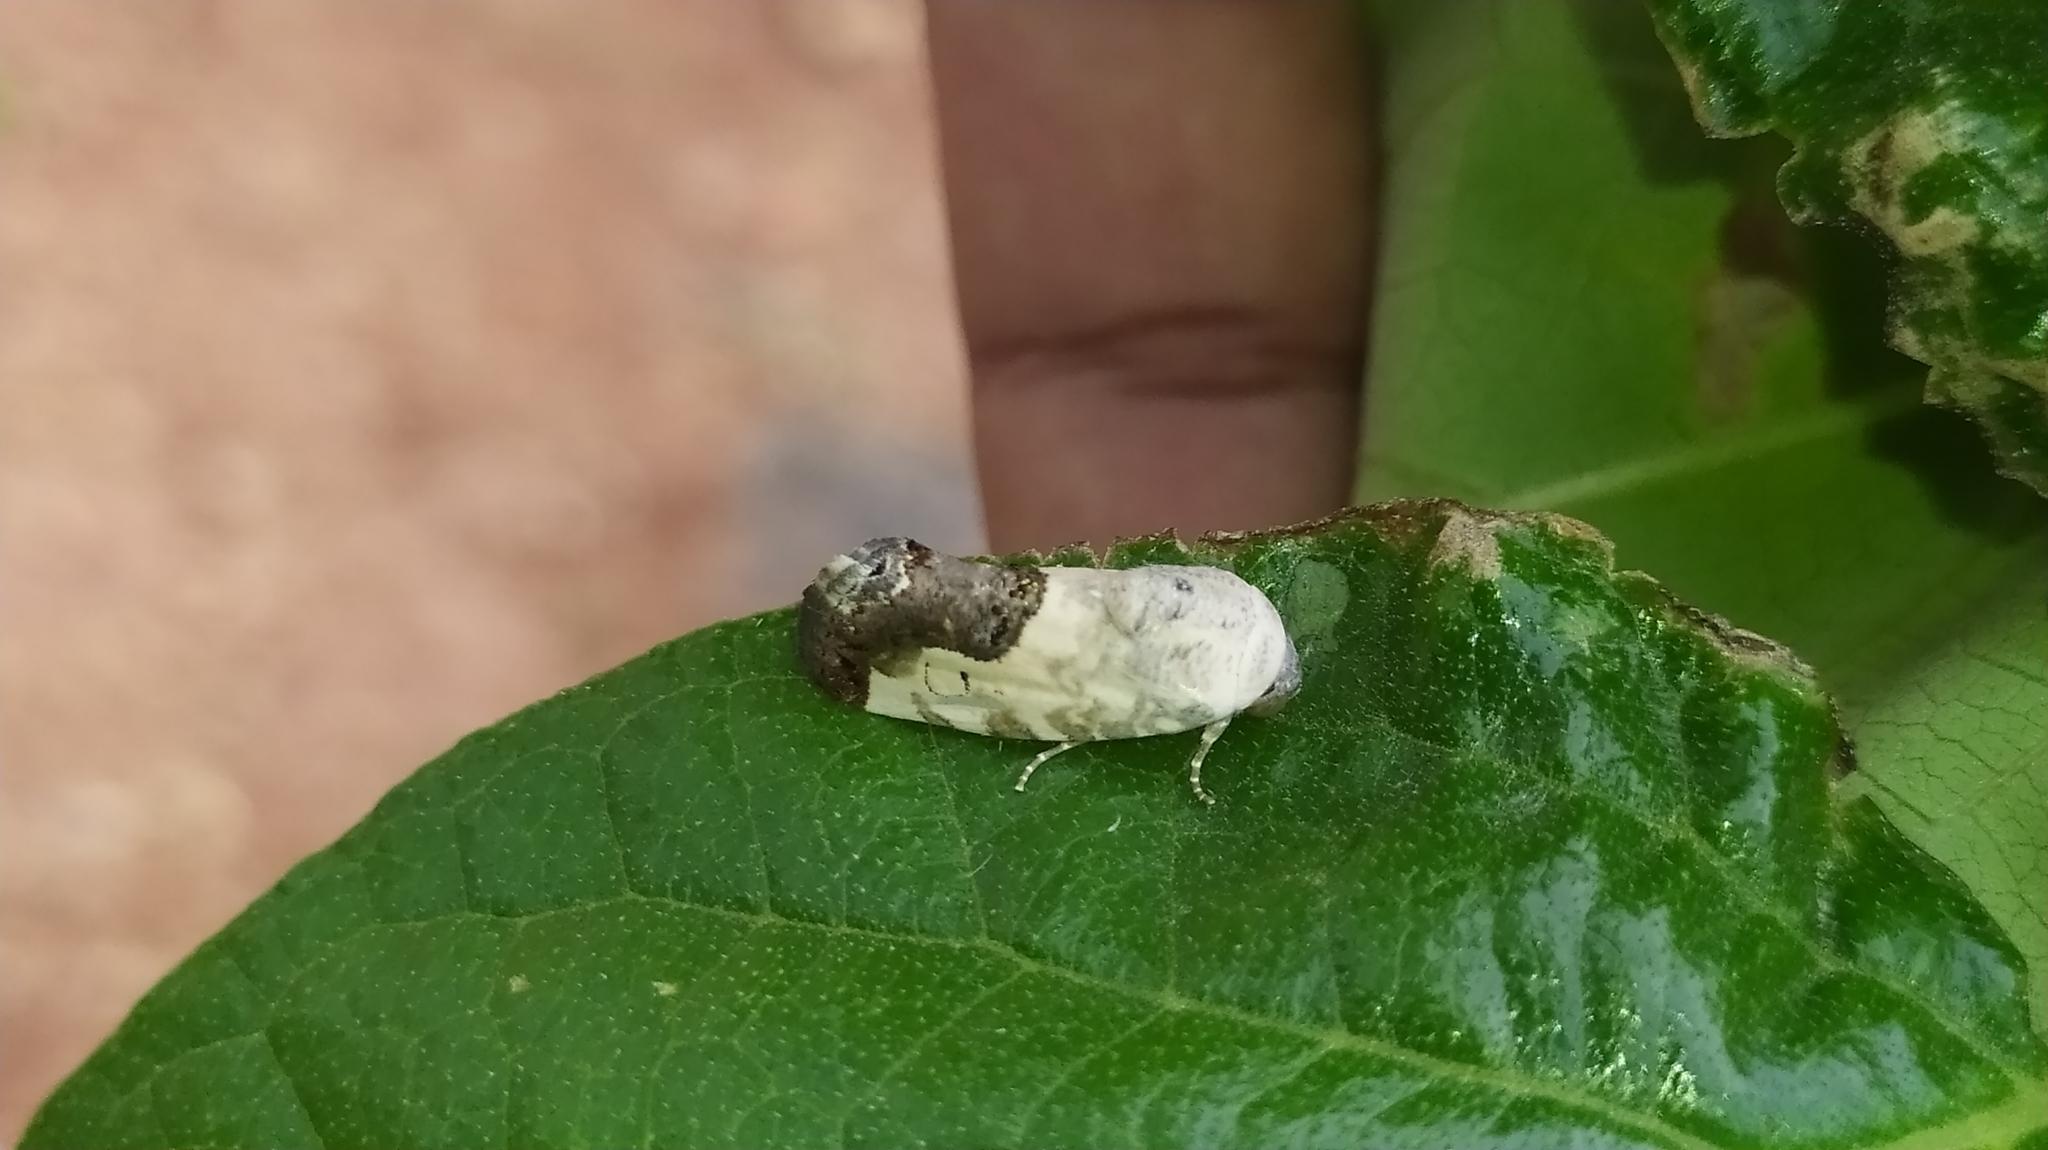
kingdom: Animalia
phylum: Arthropoda
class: Insecta
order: Lepidoptera
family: Noctuidae
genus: Acontia
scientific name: Acontia upsilon
